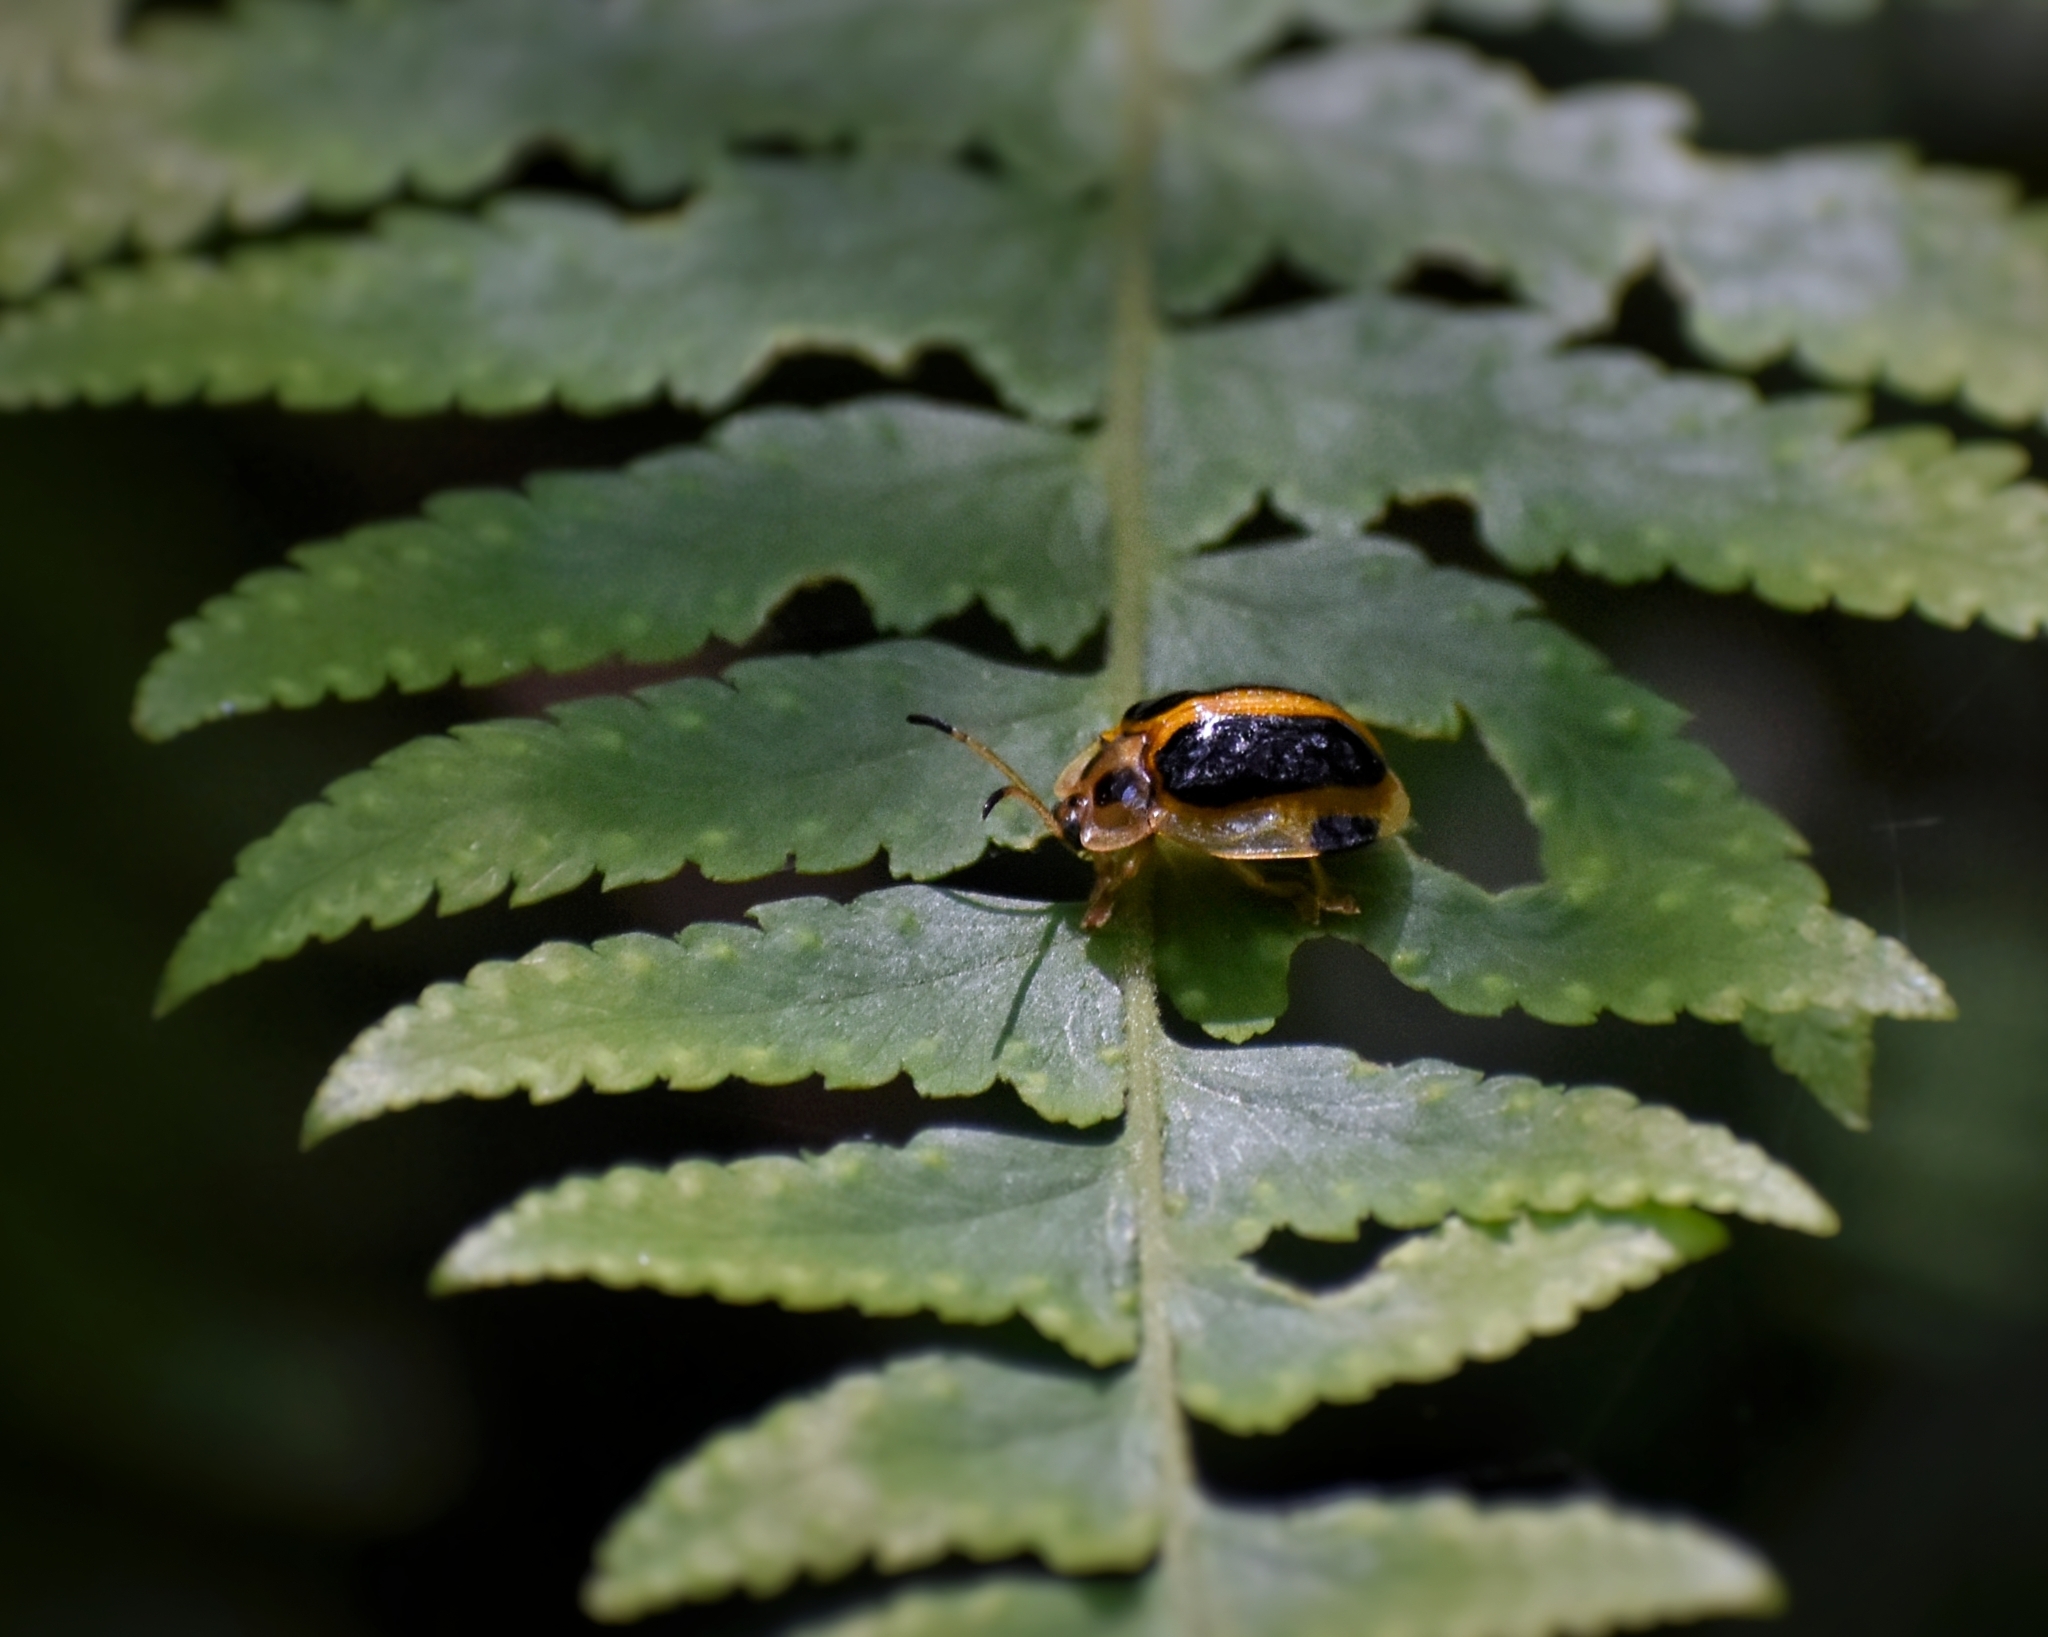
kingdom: Animalia
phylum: Arthropoda
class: Insecta
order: Coleoptera
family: Chrysomelidae
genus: Basiprionota
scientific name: Basiprionota whitei
